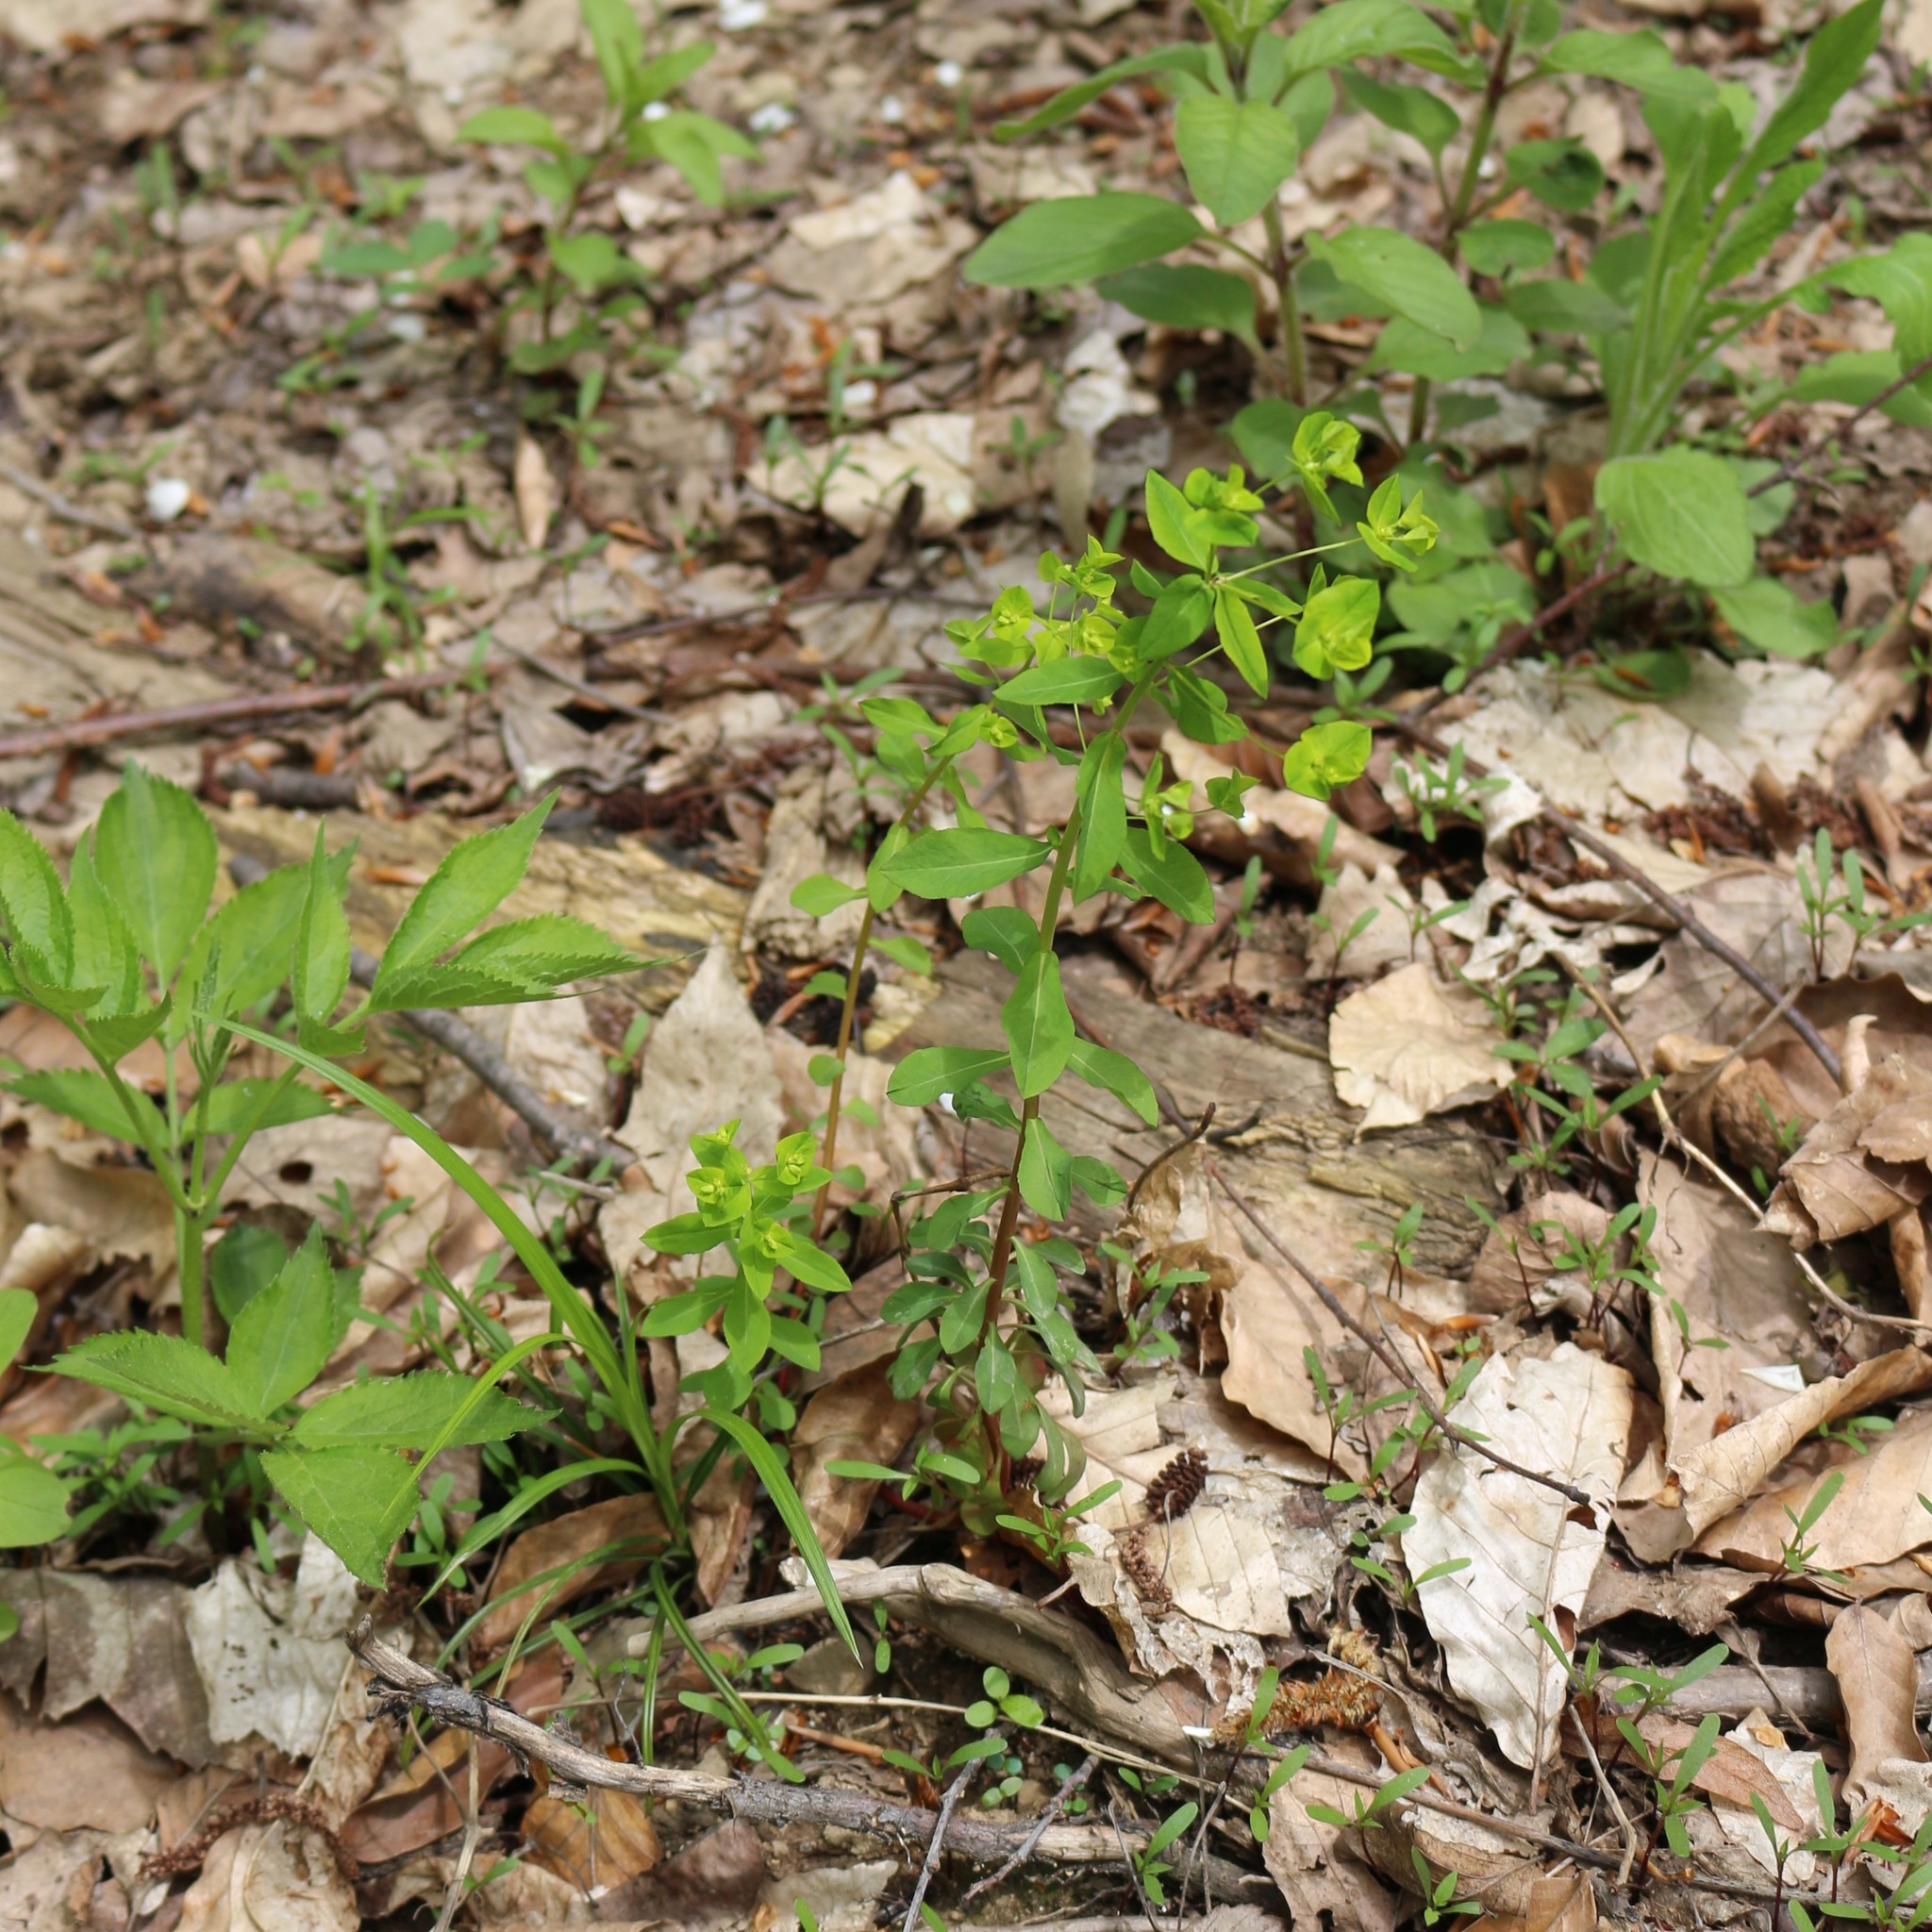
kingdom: Plantae
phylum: Tracheophyta
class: Magnoliopsida
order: Malpighiales
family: Euphorbiaceae
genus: Euphorbia
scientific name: Euphorbia stricta
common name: Upright spurge
